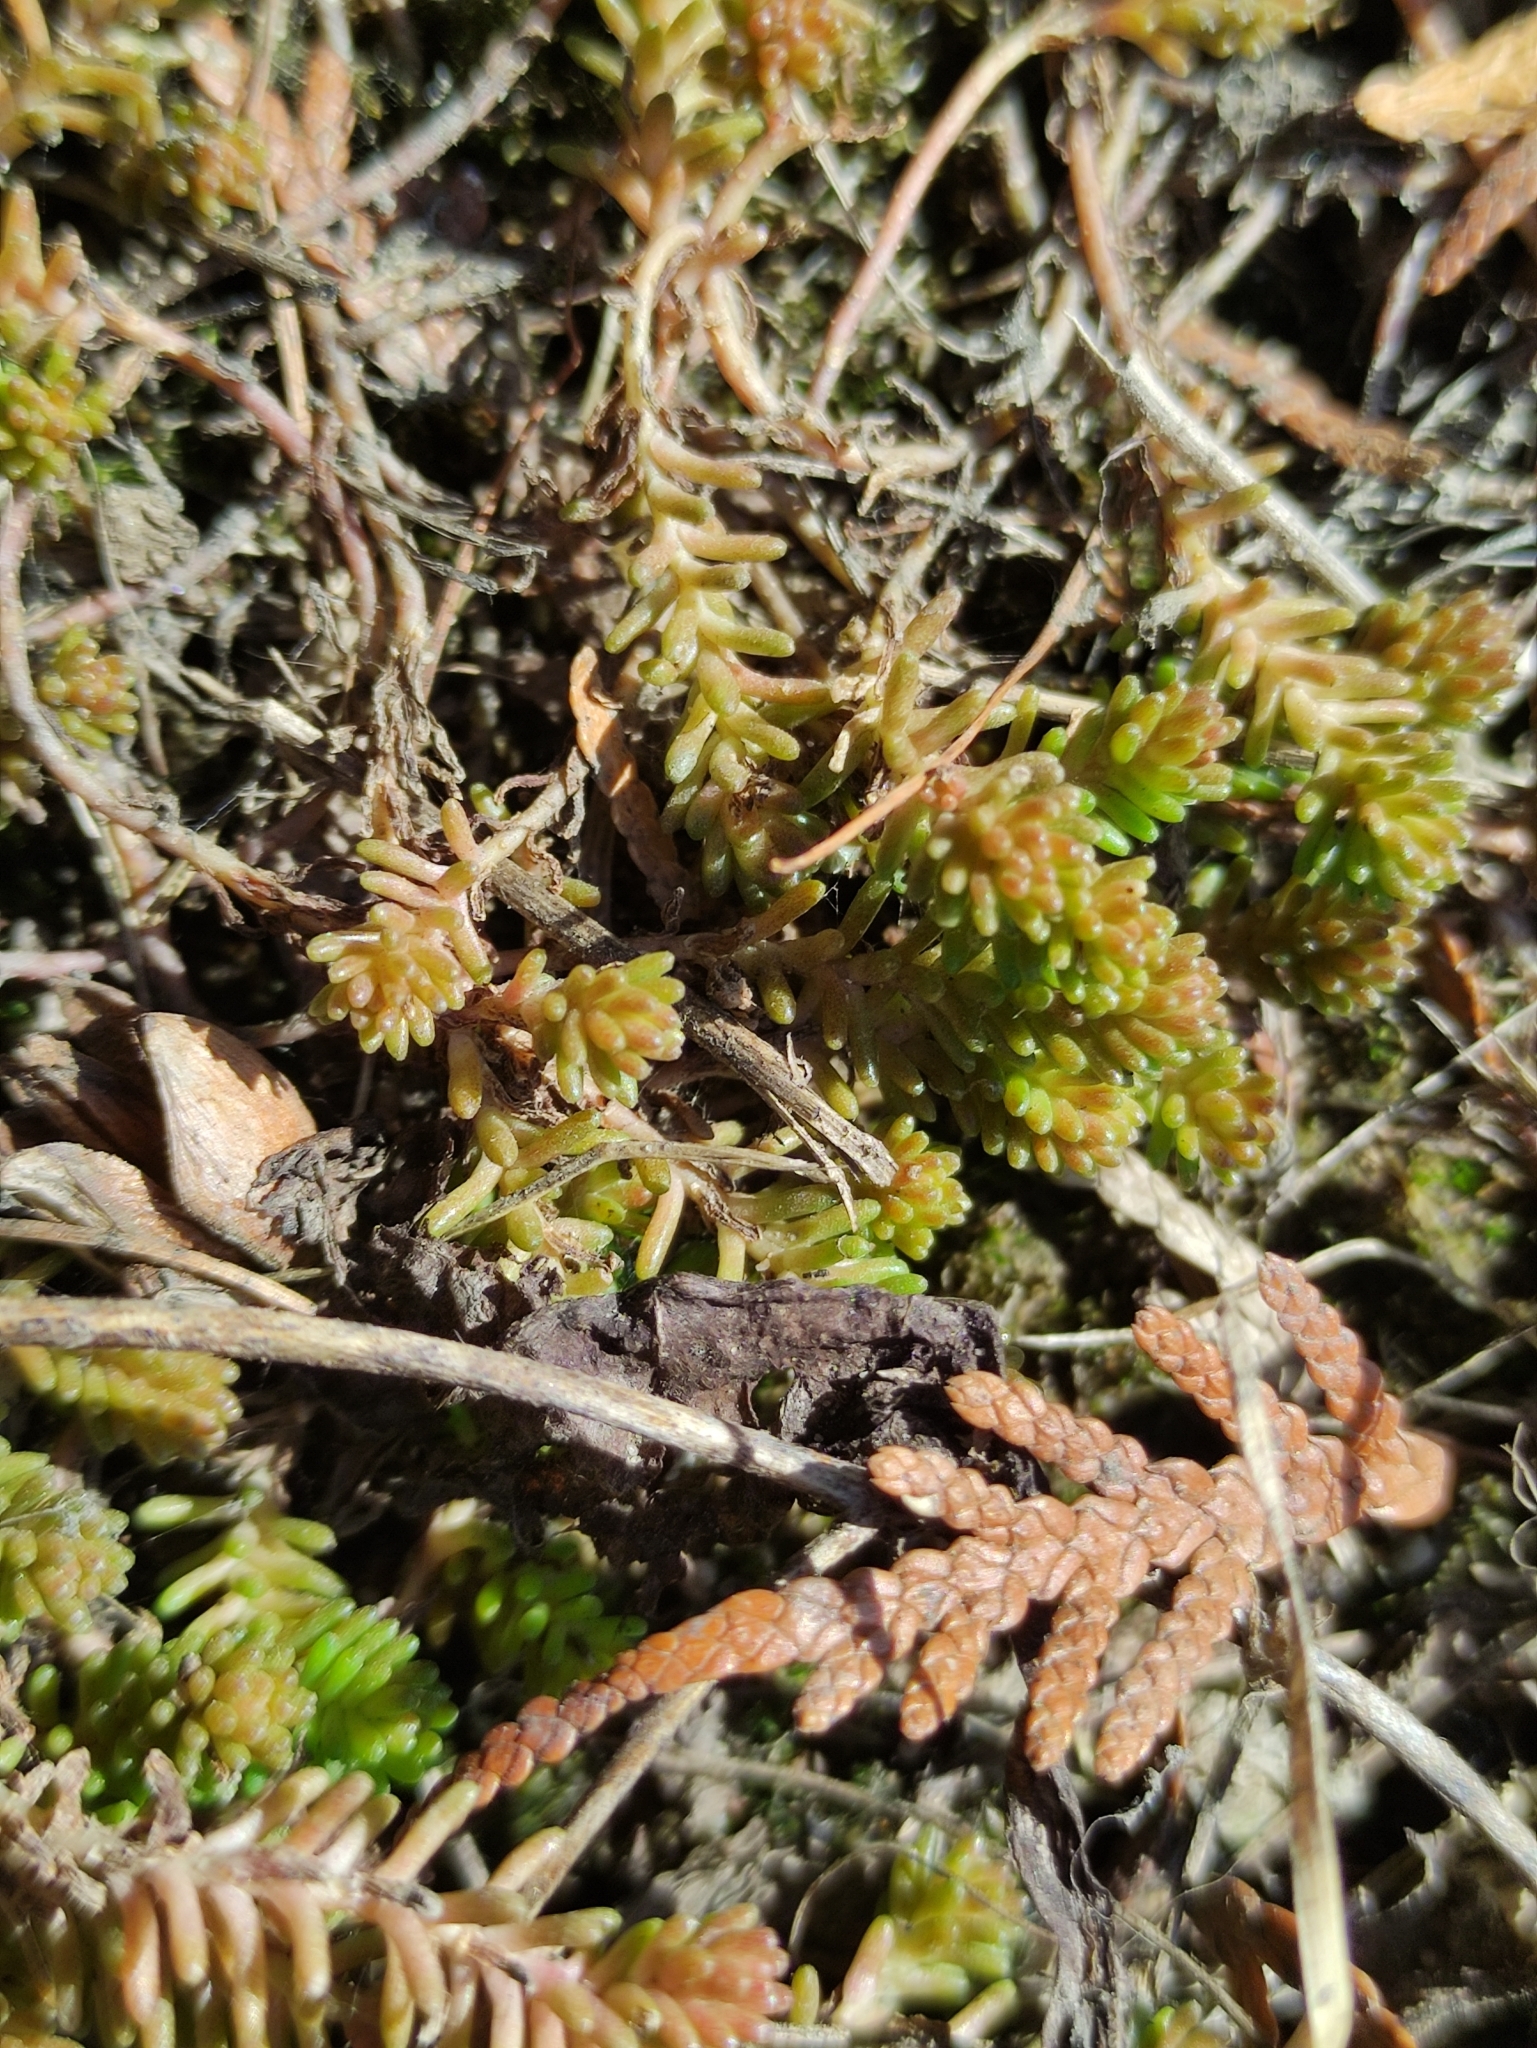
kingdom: Plantae
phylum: Tracheophyta
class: Magnoliopsida
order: Saxifragales
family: Crassulaceae
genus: Sedum
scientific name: Sedum sexangulare
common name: Tasteless stonecrop
